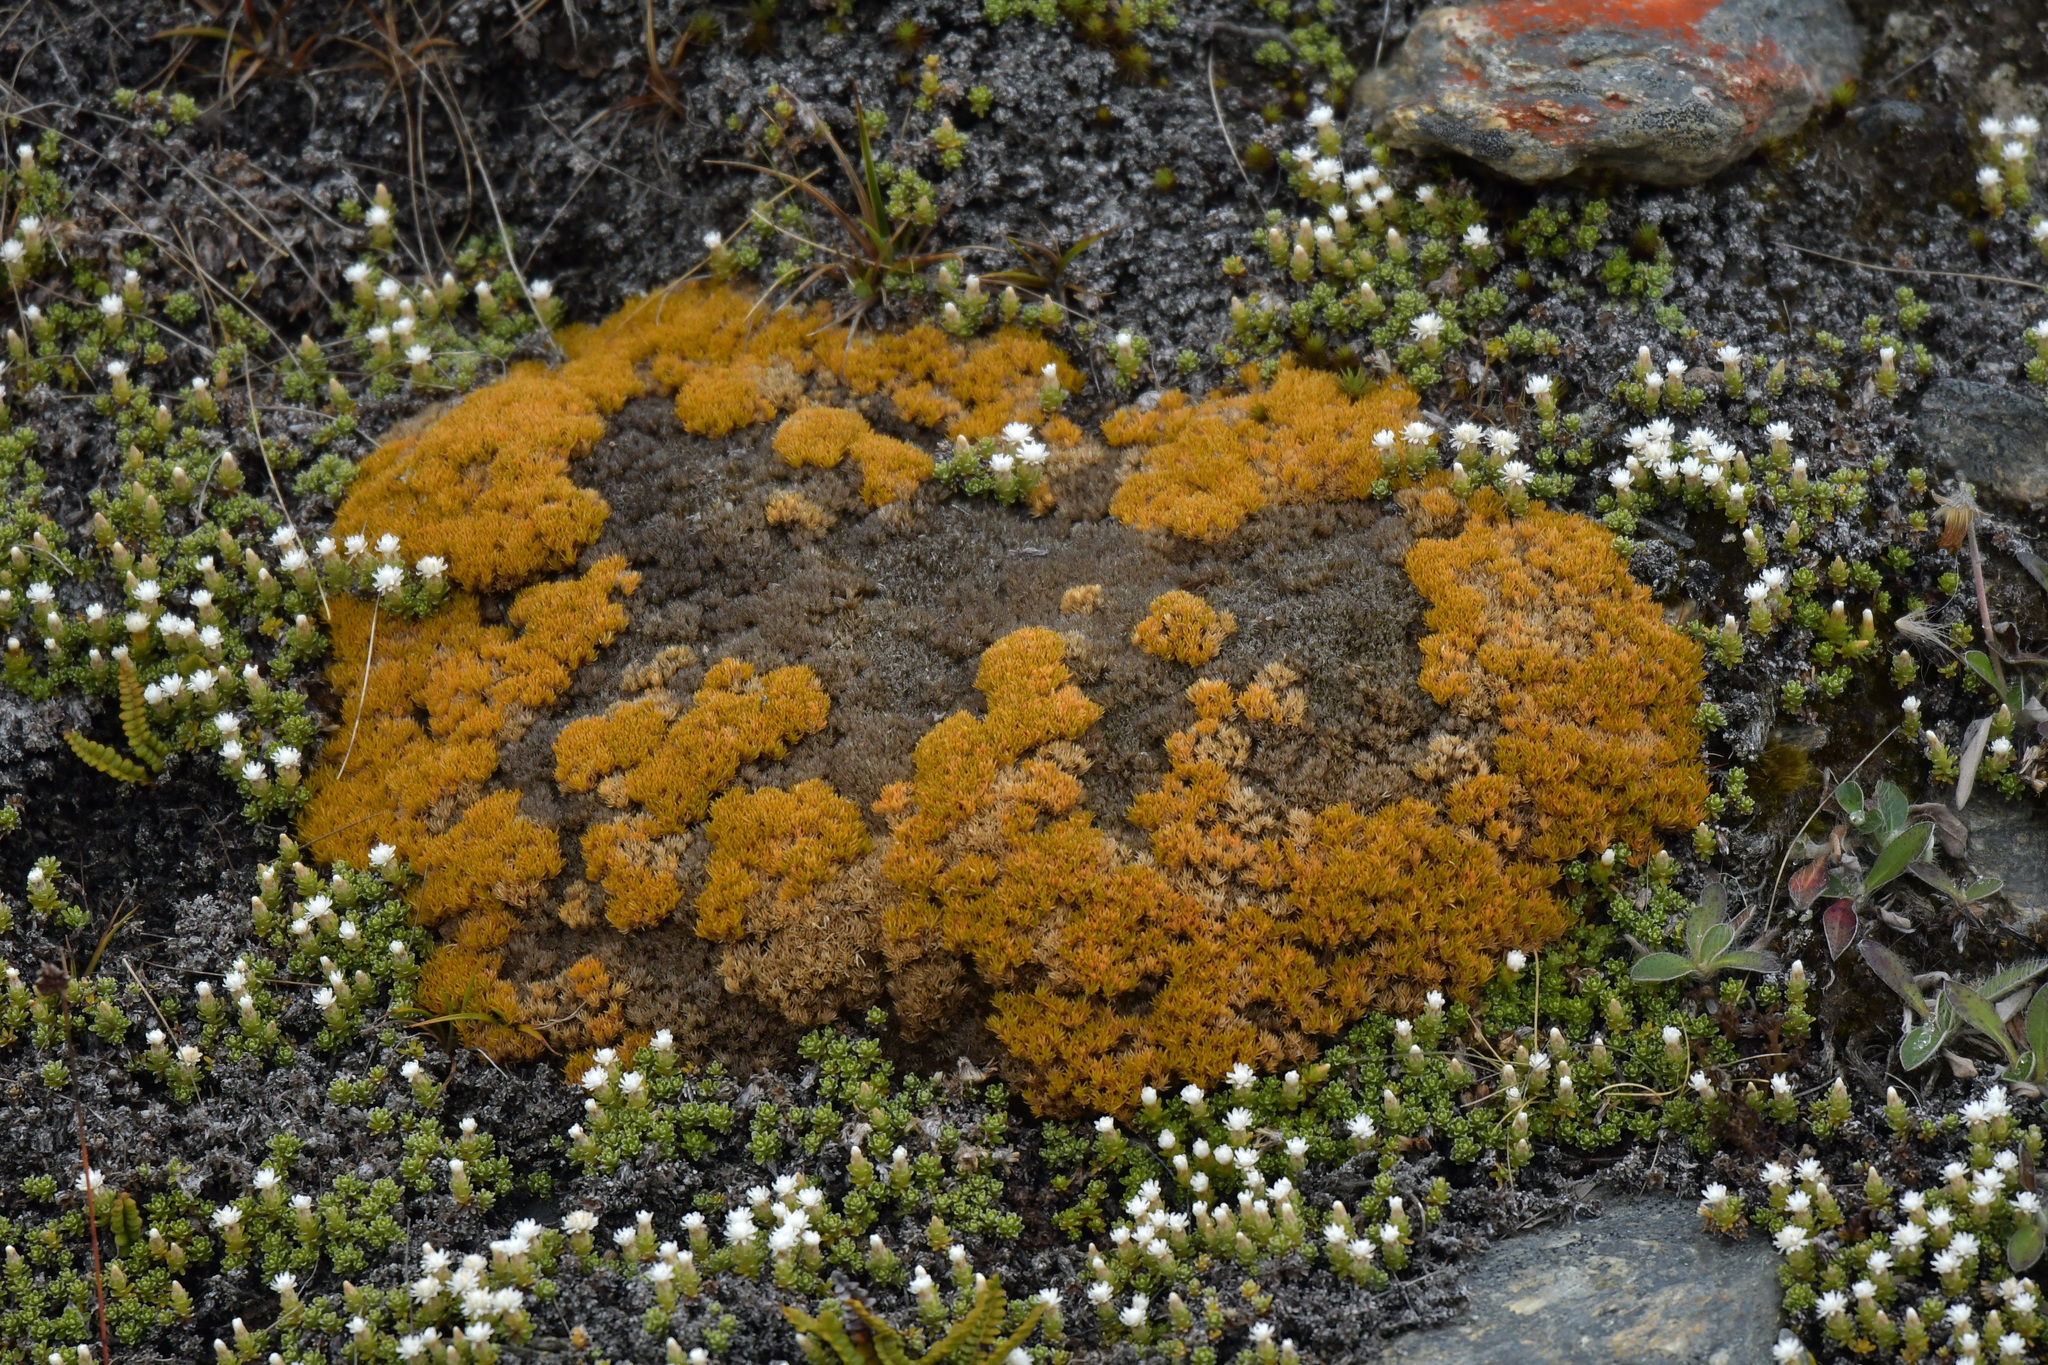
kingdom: Plantae
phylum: Tracheophyta
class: Magnoliopsida
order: Caryophyllales
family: Caryophyllaceae
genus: Scleranthus
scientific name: Scleranthus uniflorus
